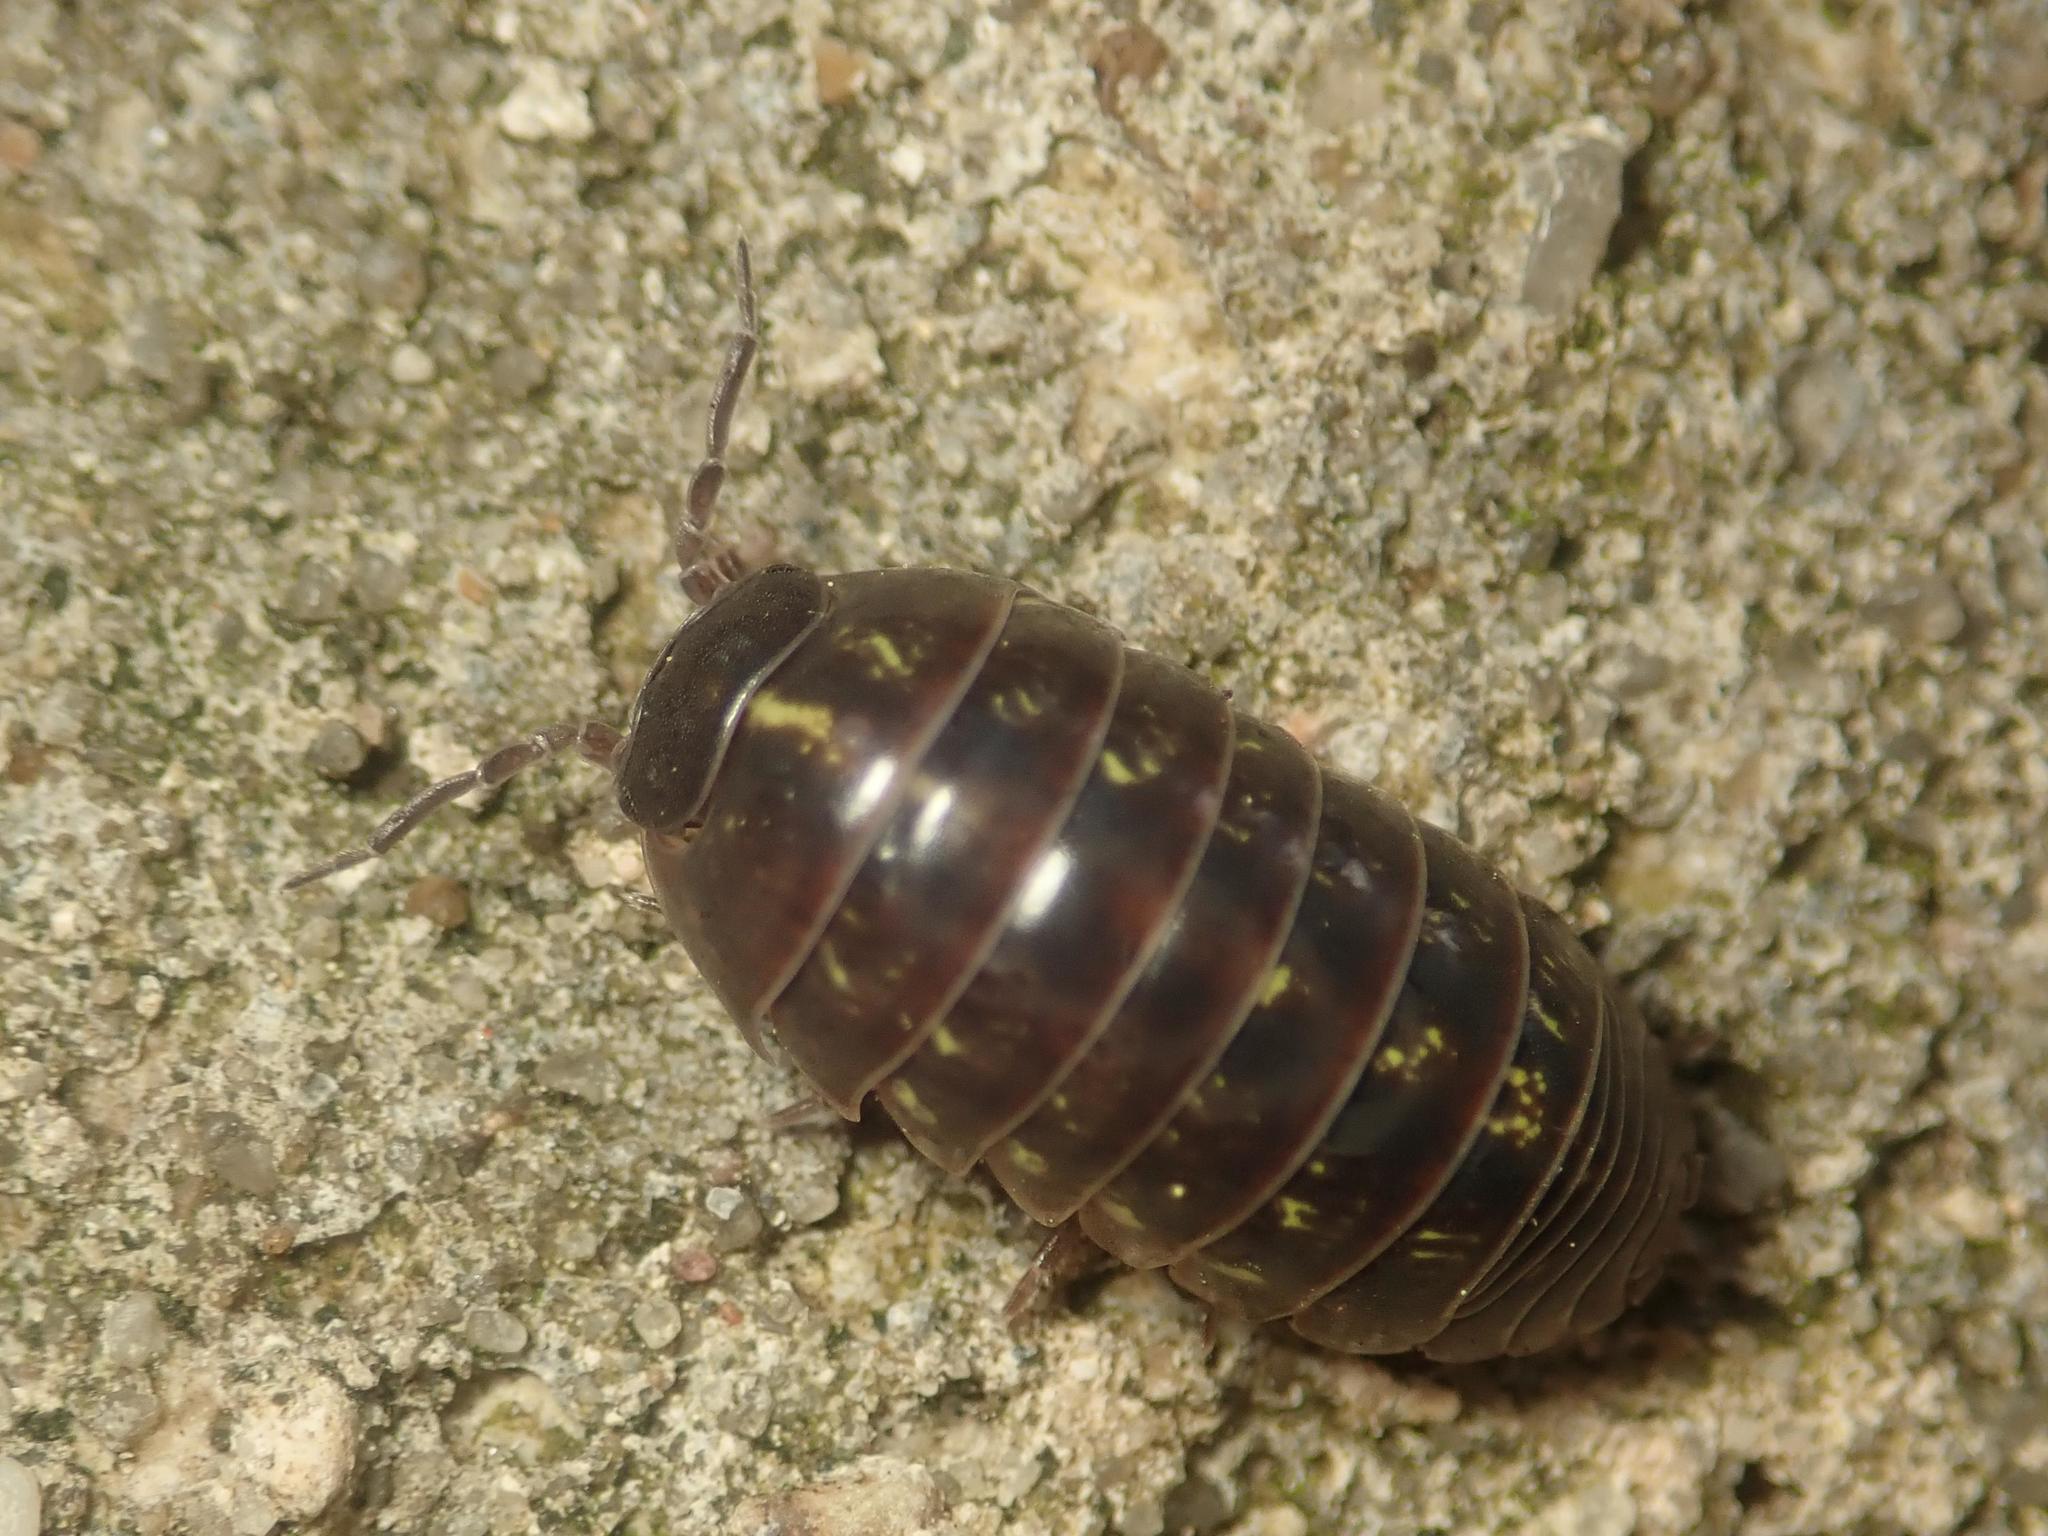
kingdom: Animalia
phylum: Arthropoda
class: Malacostraca
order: Isopoda
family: Armadillidiidae
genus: Armadillidium
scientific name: Armadillidium vulgare
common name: Common pill woodlouse
